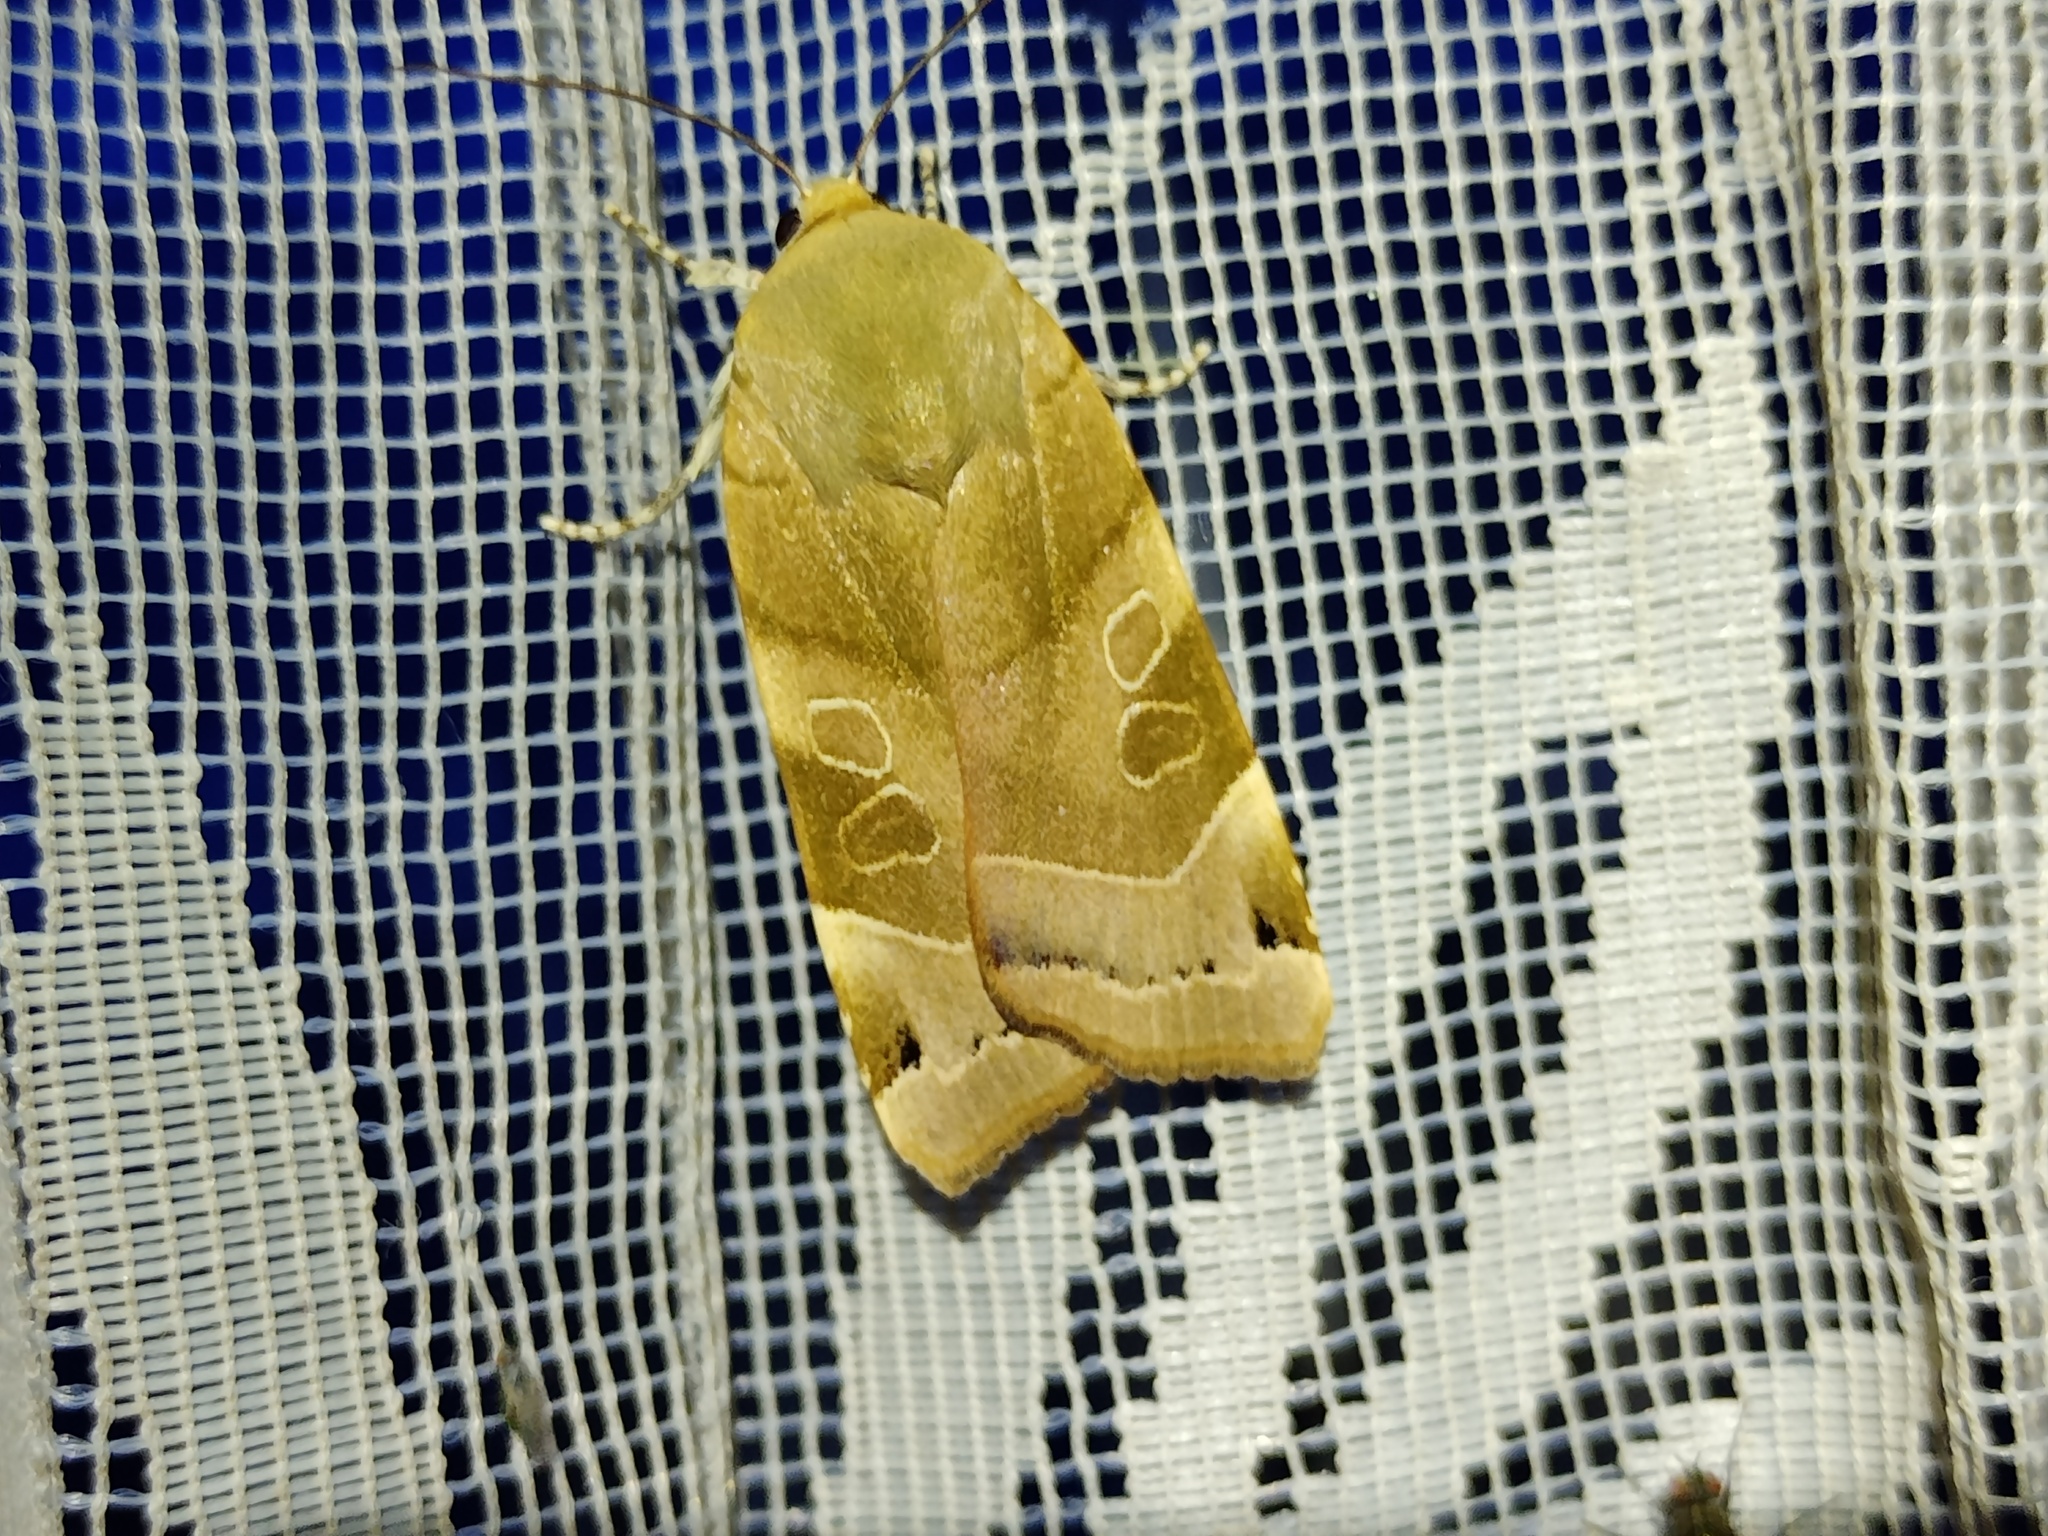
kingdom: Animalia
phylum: Arthropoda
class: Insecta
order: Lepidoptera
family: Noctuidae
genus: Noctua
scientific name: Noctua fimbriata
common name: Broad-bordered yellow underwing
